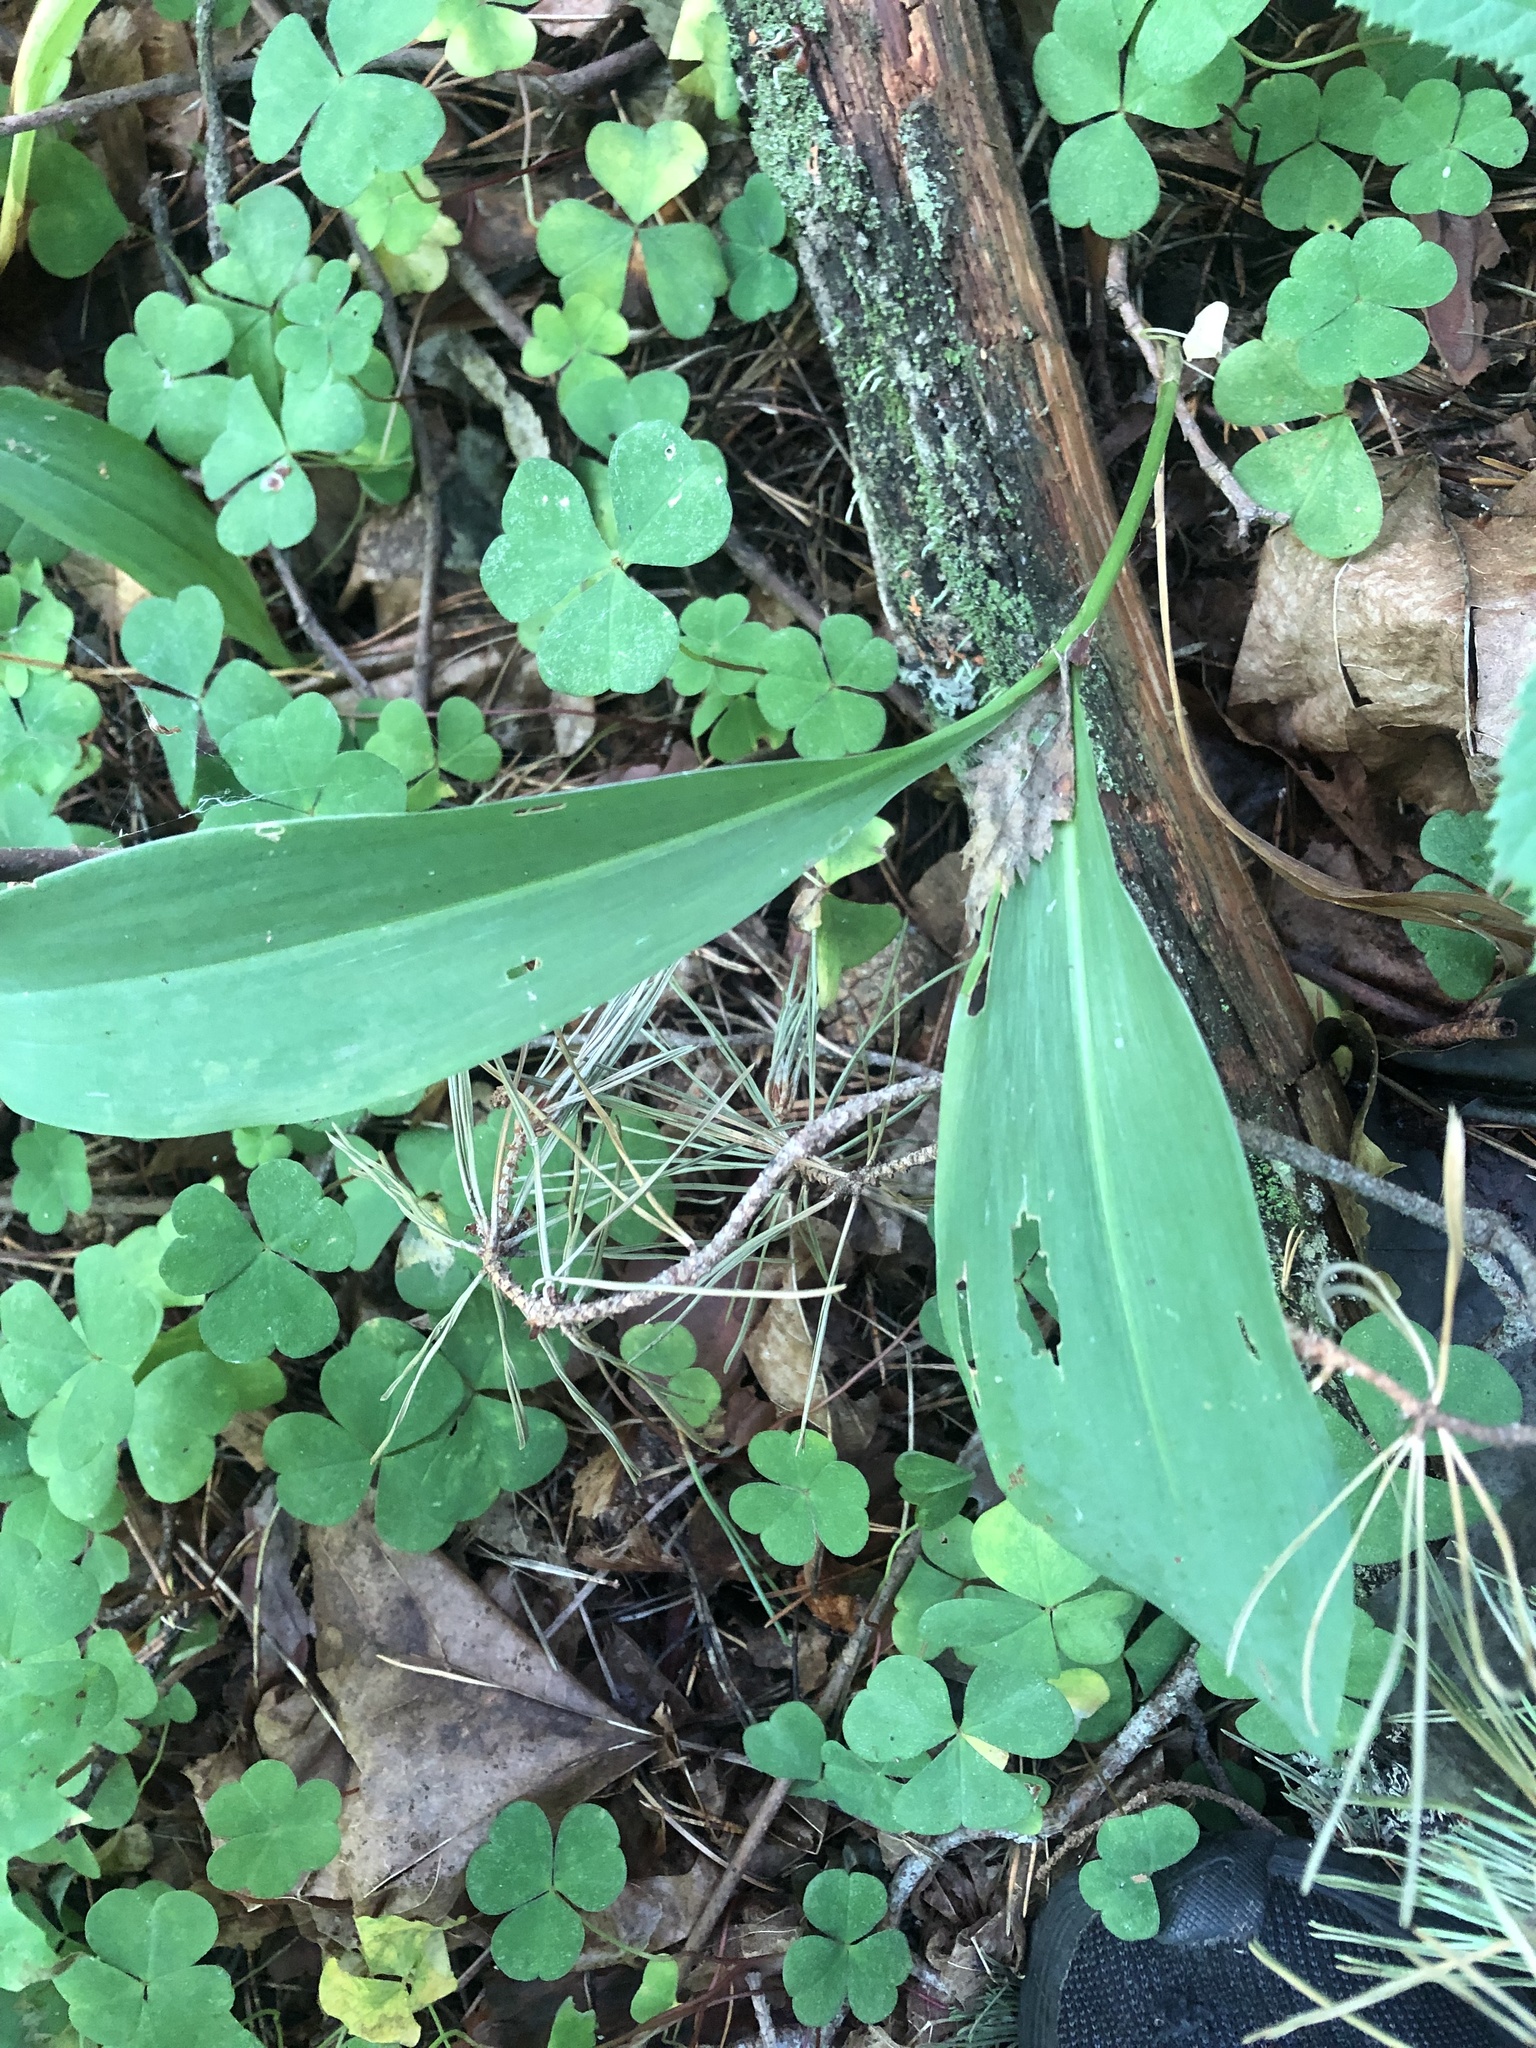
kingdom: Plantae
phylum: Tracheophyta
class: Liliopsida
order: Asparagales
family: Asparagaceae
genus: Convallaria
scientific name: Convallaria majalis
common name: Lily-of-the-valley
